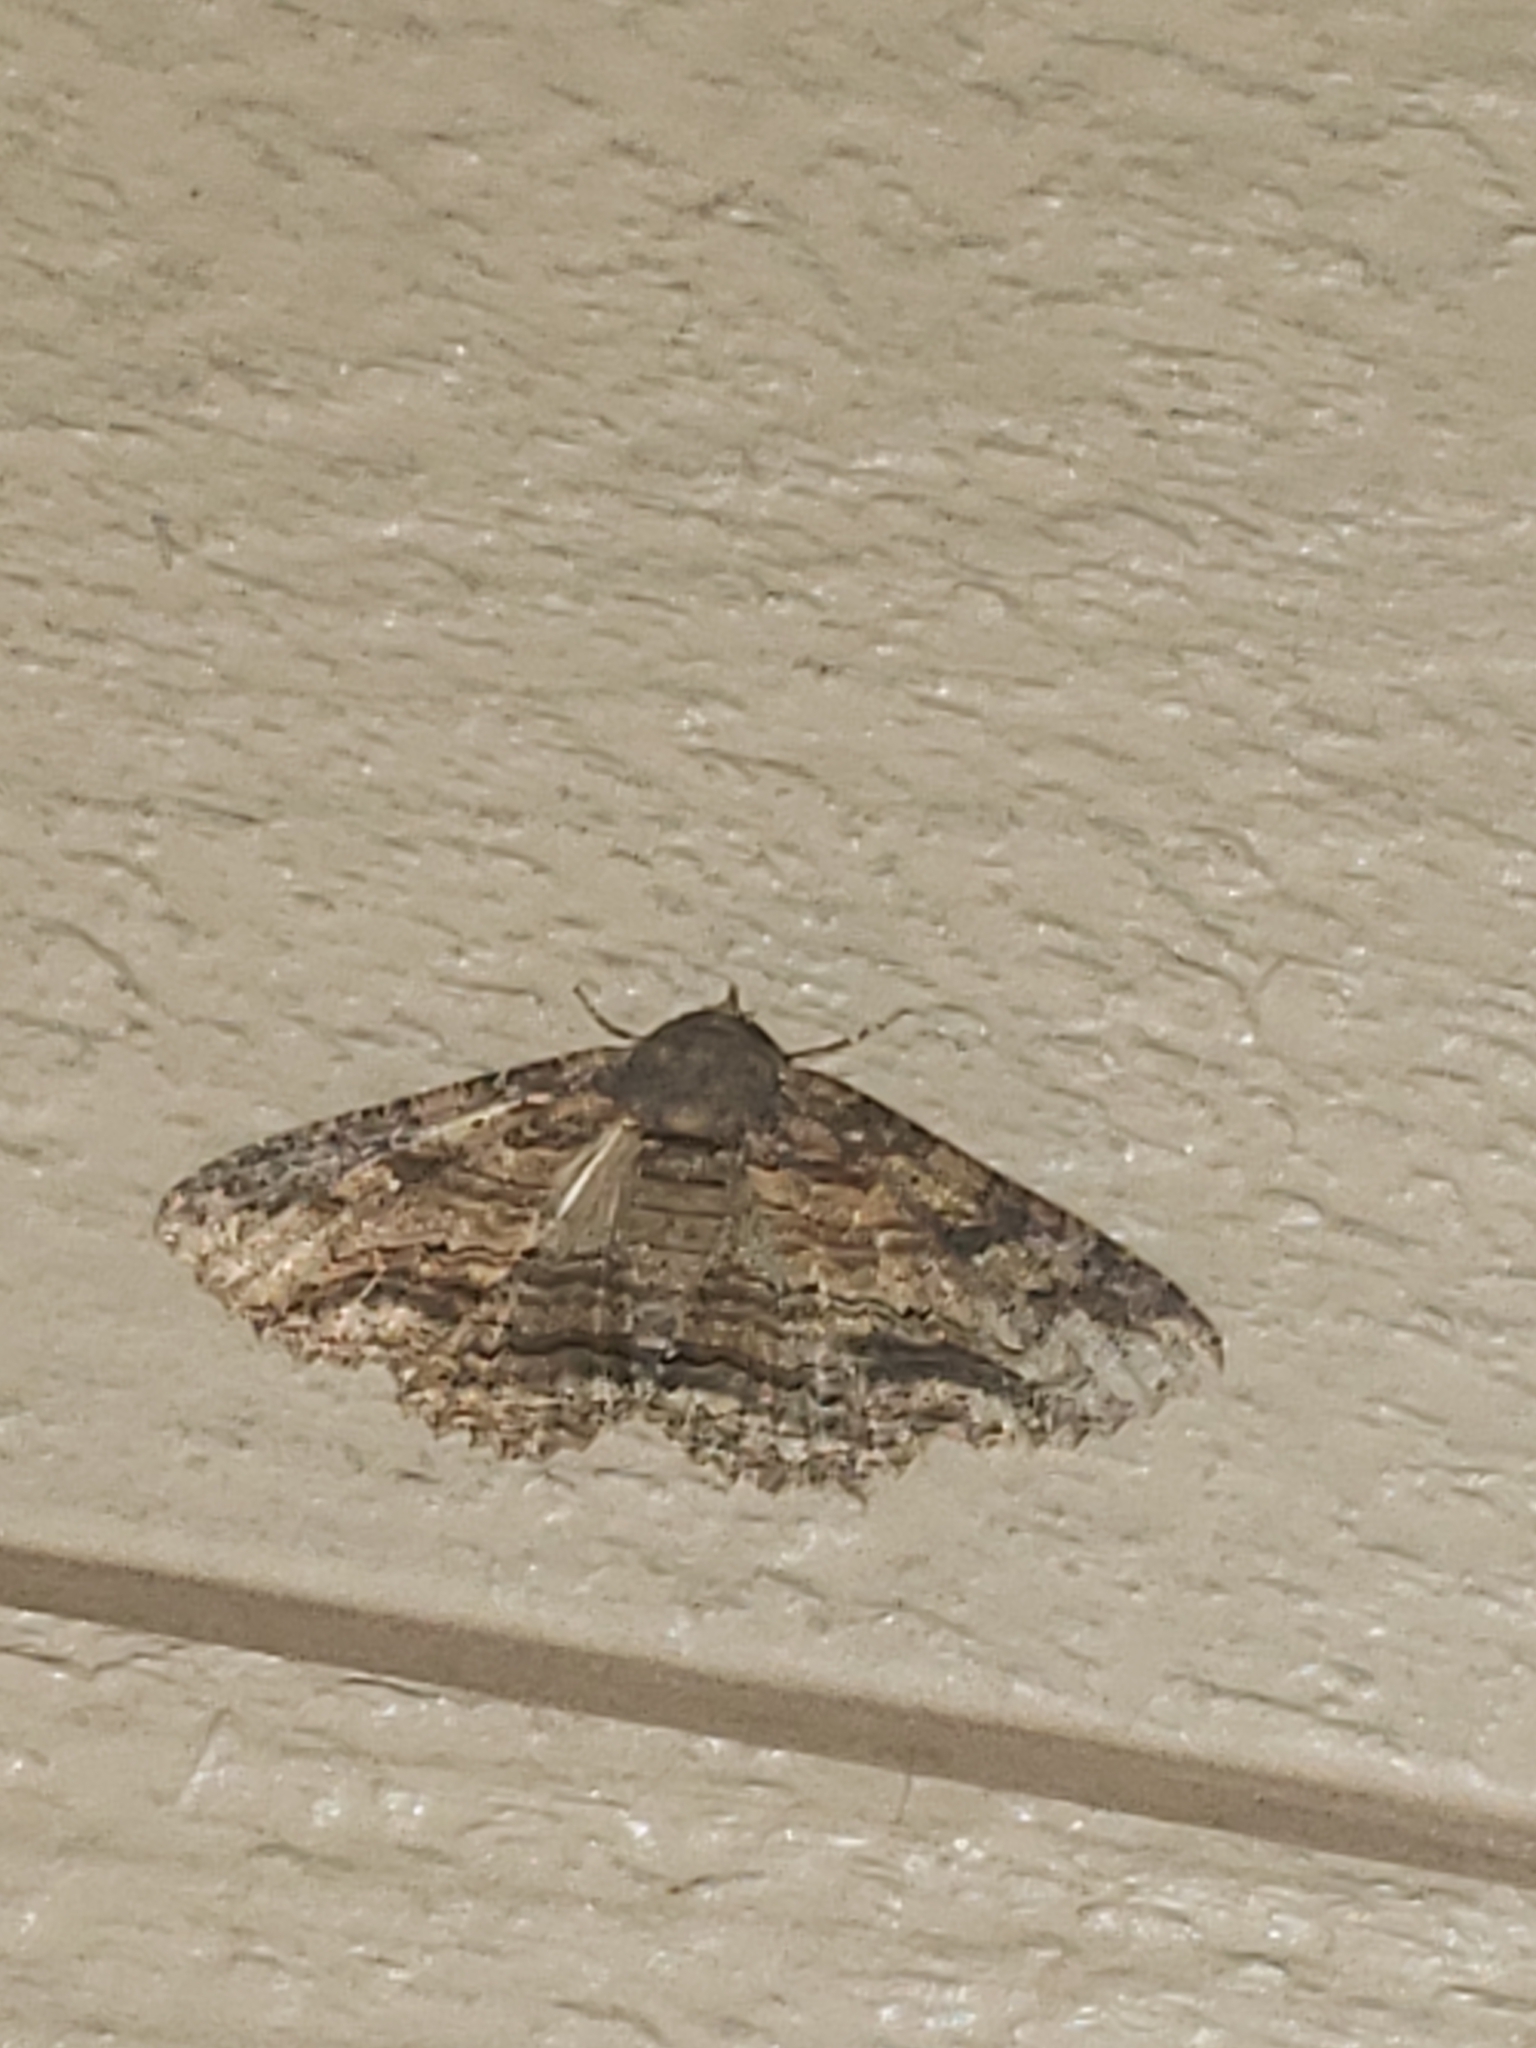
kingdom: Animalia
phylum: Arthropoda
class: Insecta
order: Lepidoptera
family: Erebidae
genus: Zale
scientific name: Zale lunata
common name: Lunate zale moth
